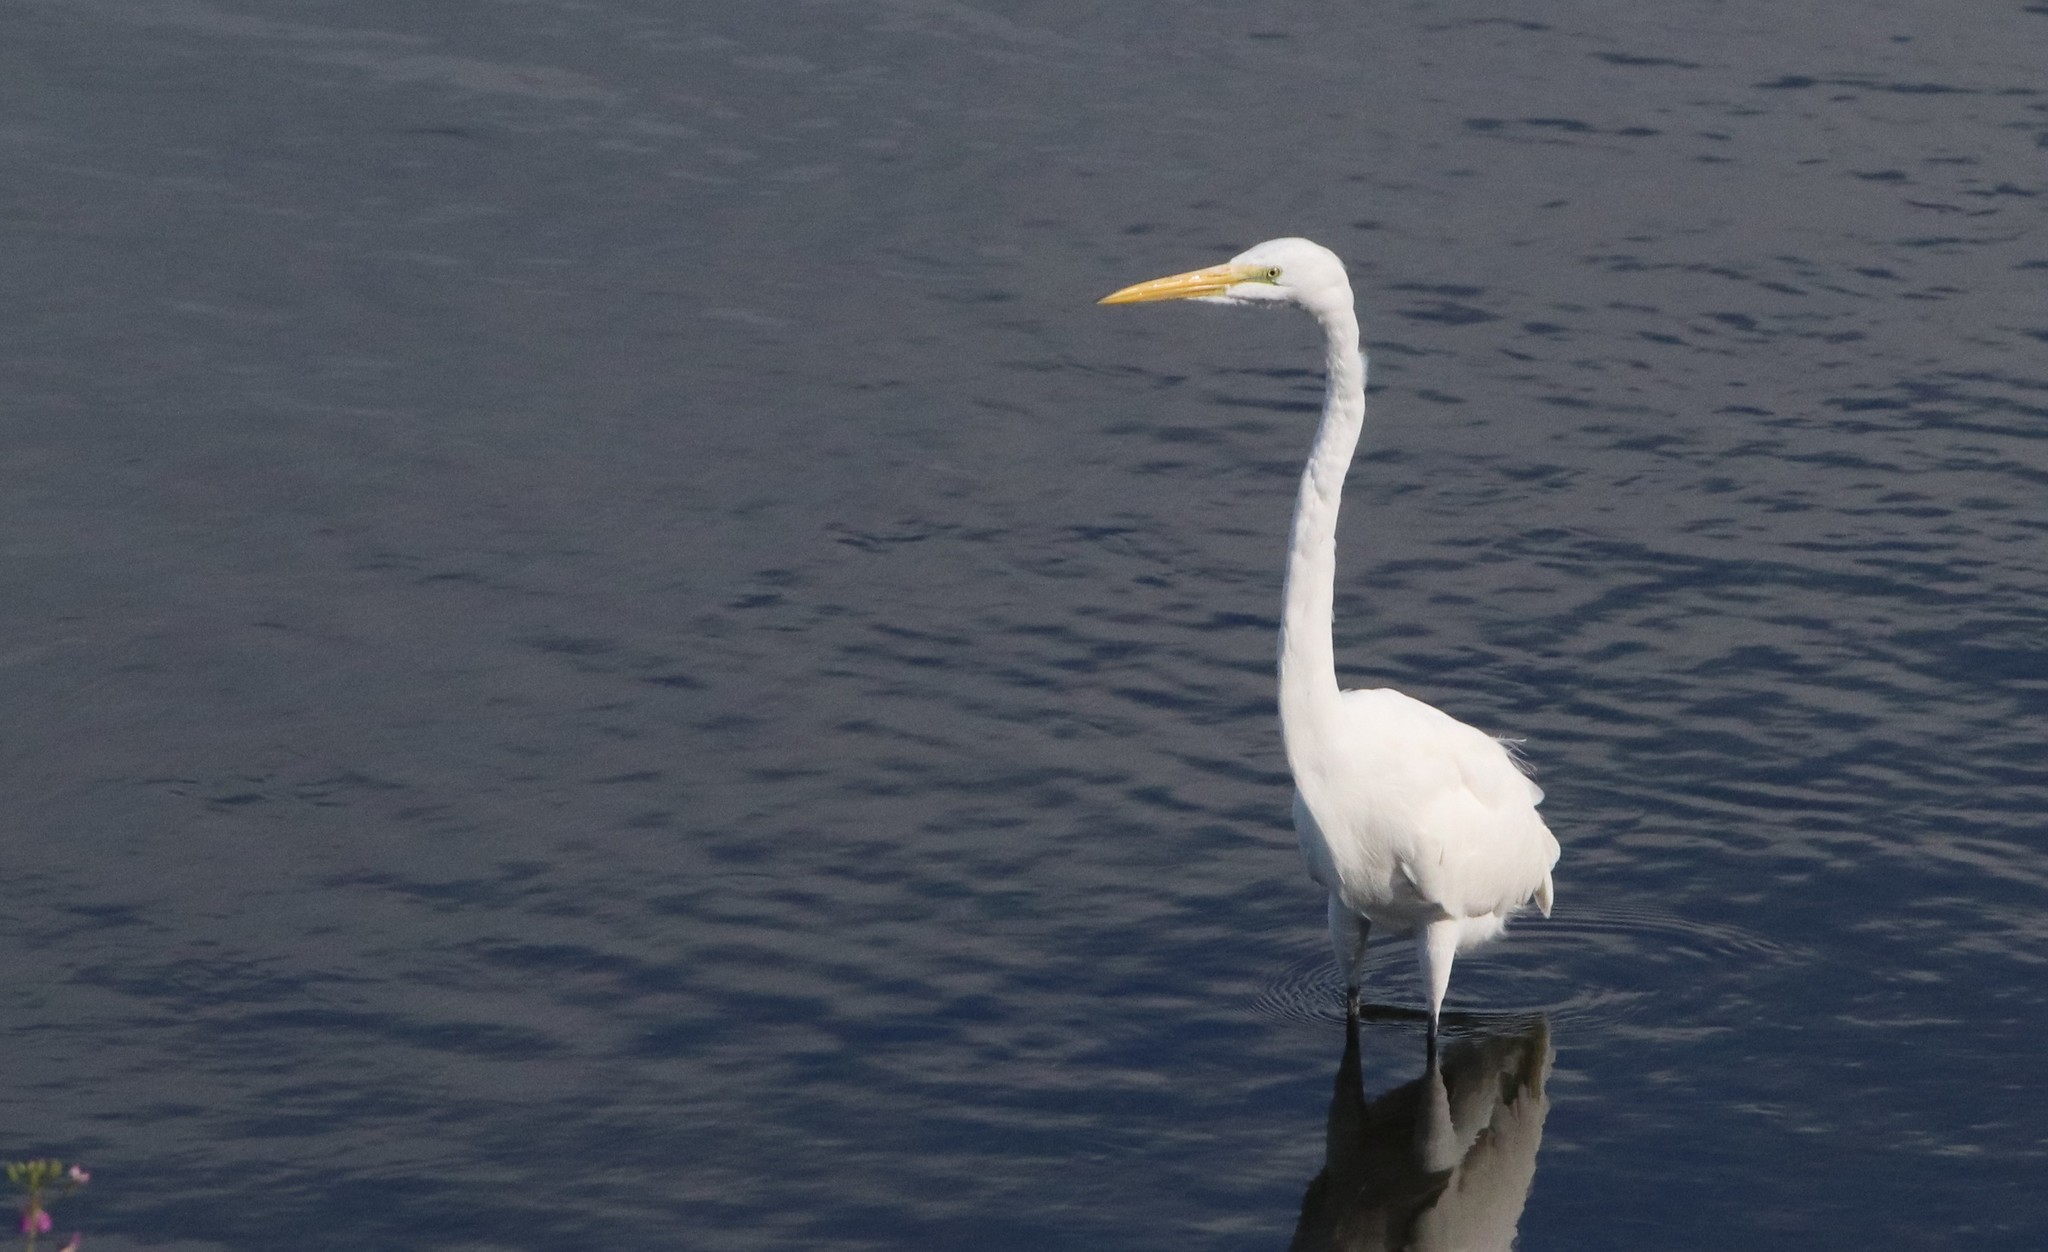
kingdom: Animalia
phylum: Chordata
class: Aves
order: Pelecaniformes
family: Ardeidae
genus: Ardea
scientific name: Ardea alba
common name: Great egret
